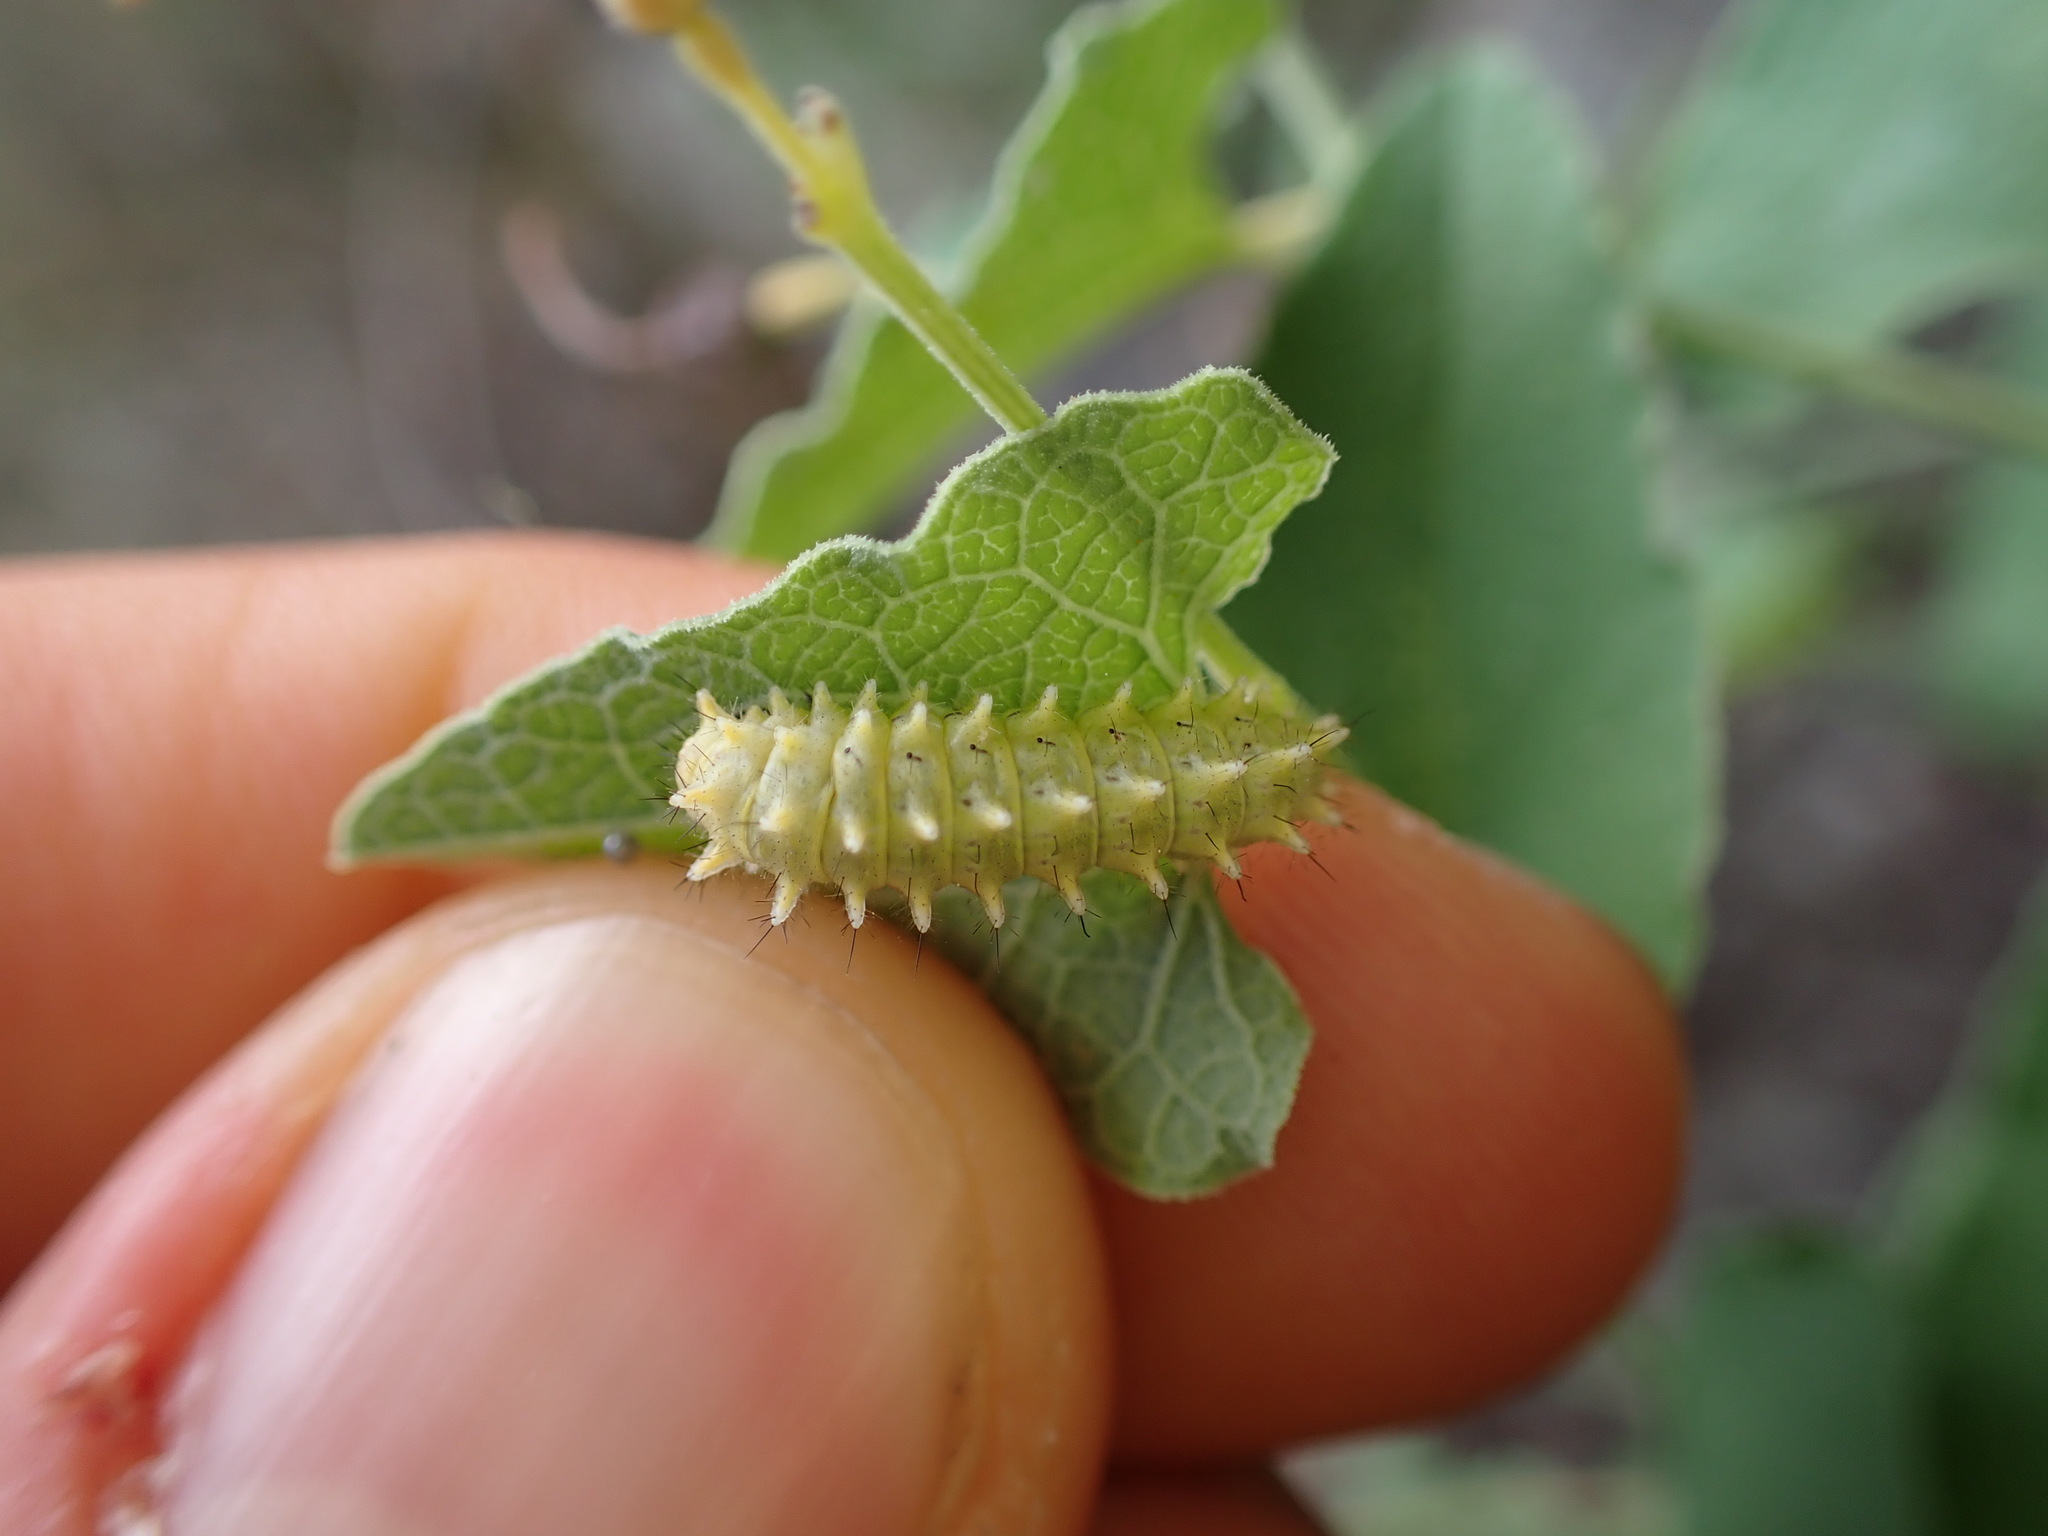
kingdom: Animalia
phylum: Arthropoda
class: Insecta
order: Lepidoptera
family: Papilionidae
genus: Zerynthia
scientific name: Zerynthia rumina
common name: Spanish festoon
